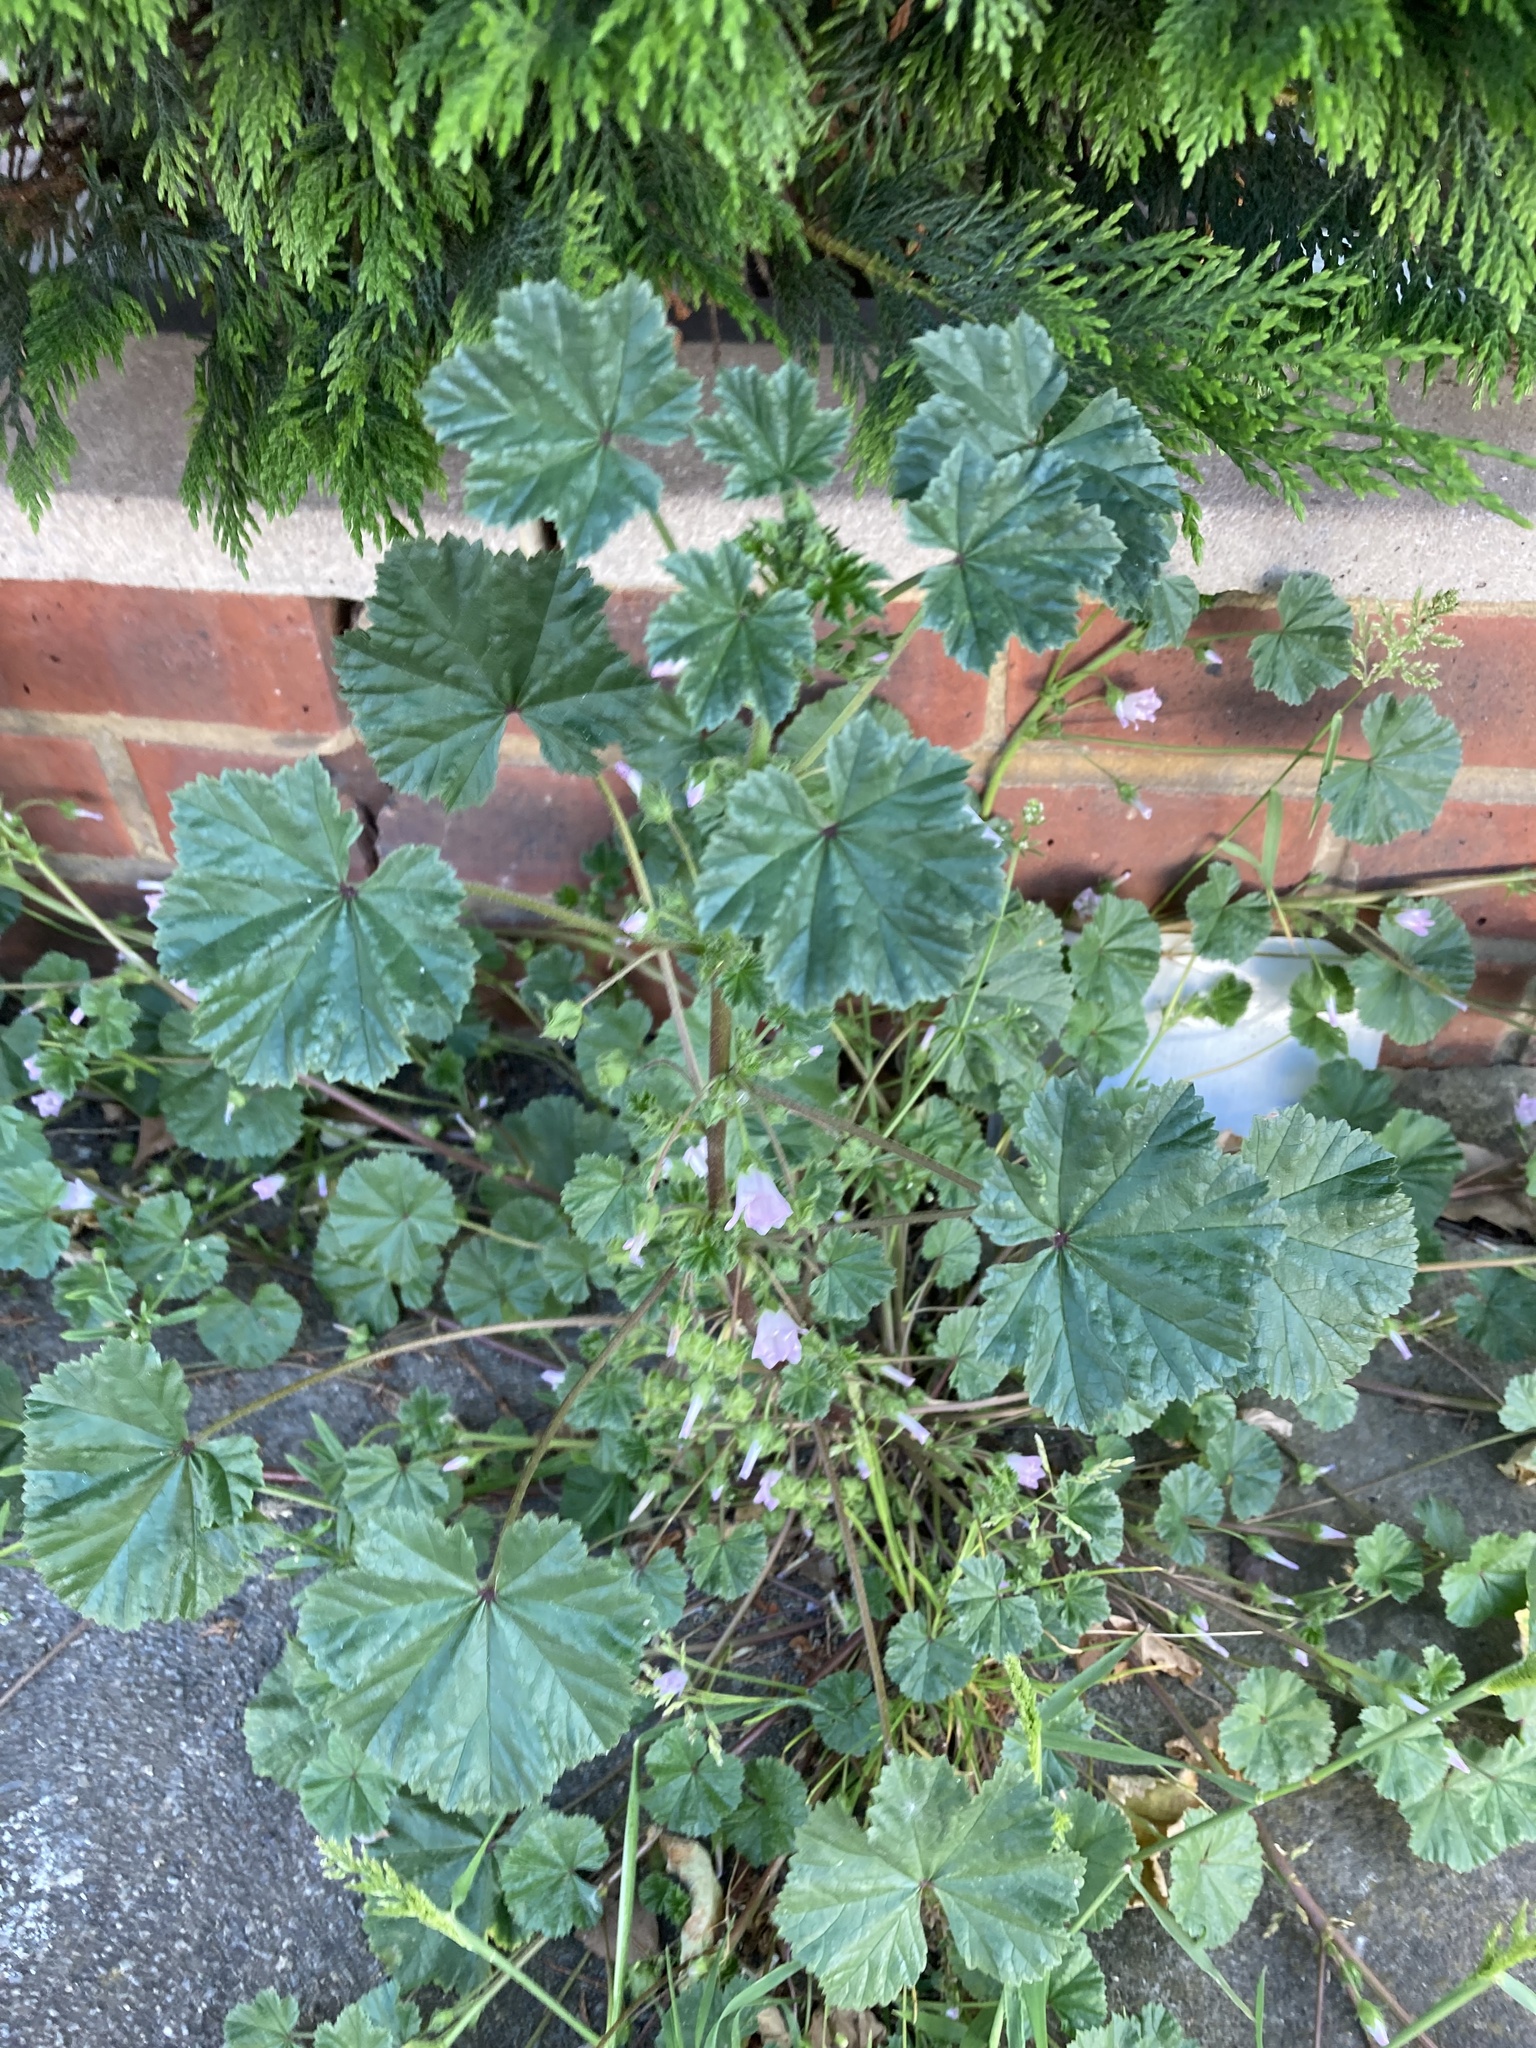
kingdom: Plantae
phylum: Tracheophyta
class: Magnoliopsida
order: Malvales
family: Malvaceae
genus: Malva
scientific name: Malva neglecta
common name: Common mallow
